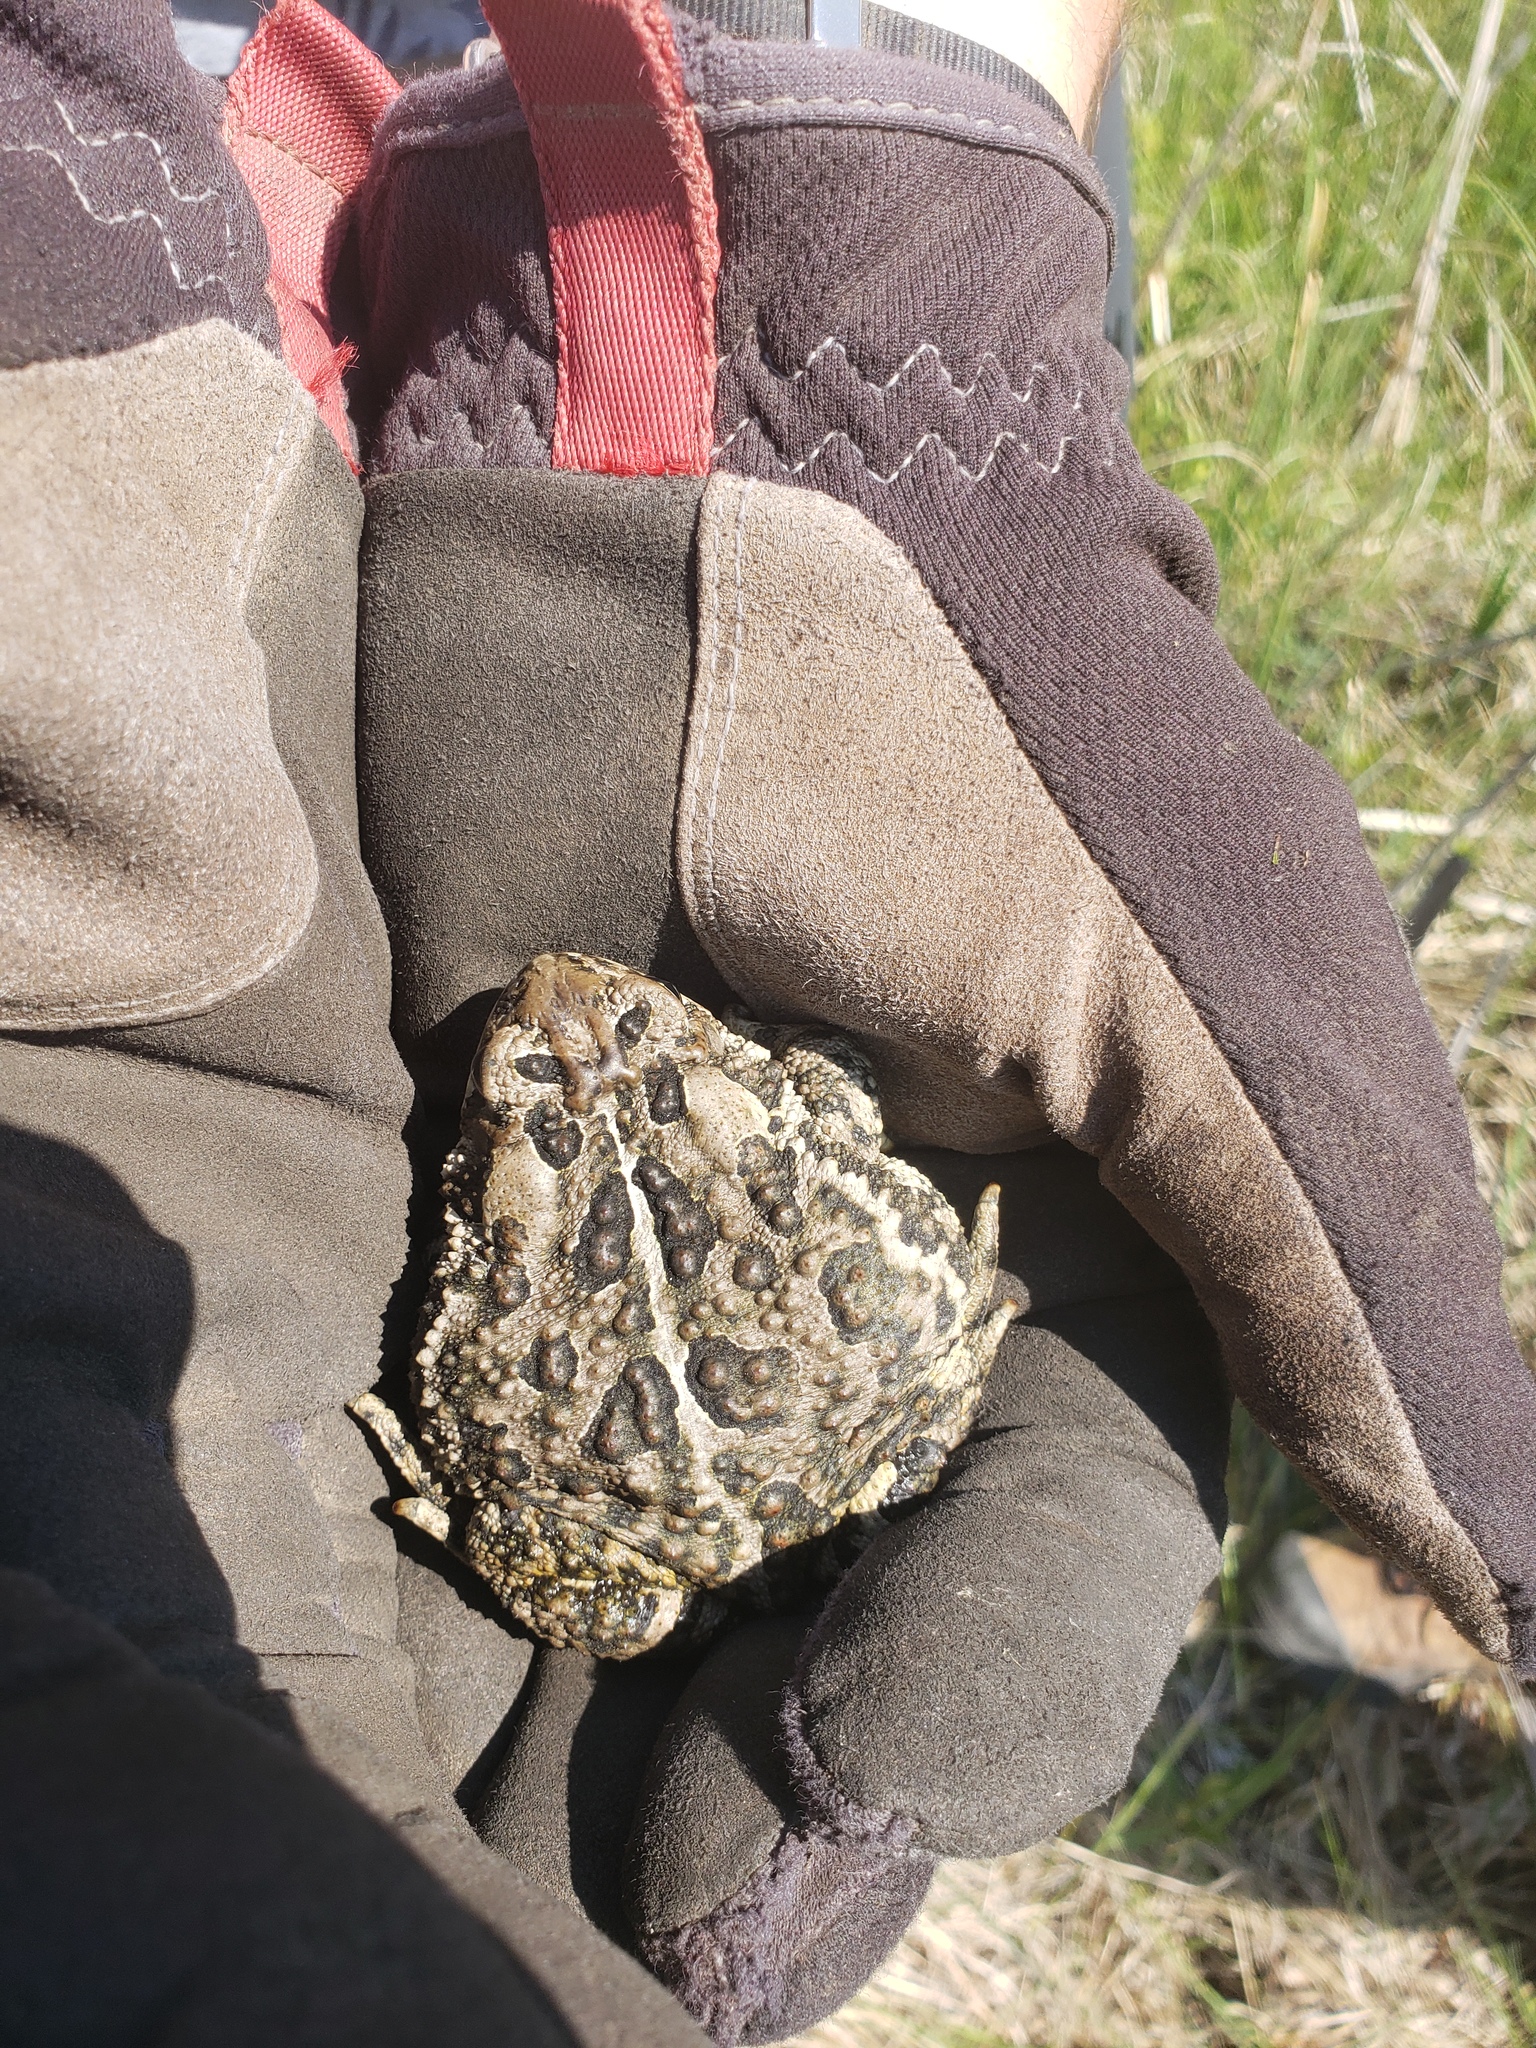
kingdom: Animalia
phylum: Chordata
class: Amphibia
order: Anura
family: Bufonidae
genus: Anaxyrus
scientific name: Anaxyrus hemiophrys
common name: Canadian toad
